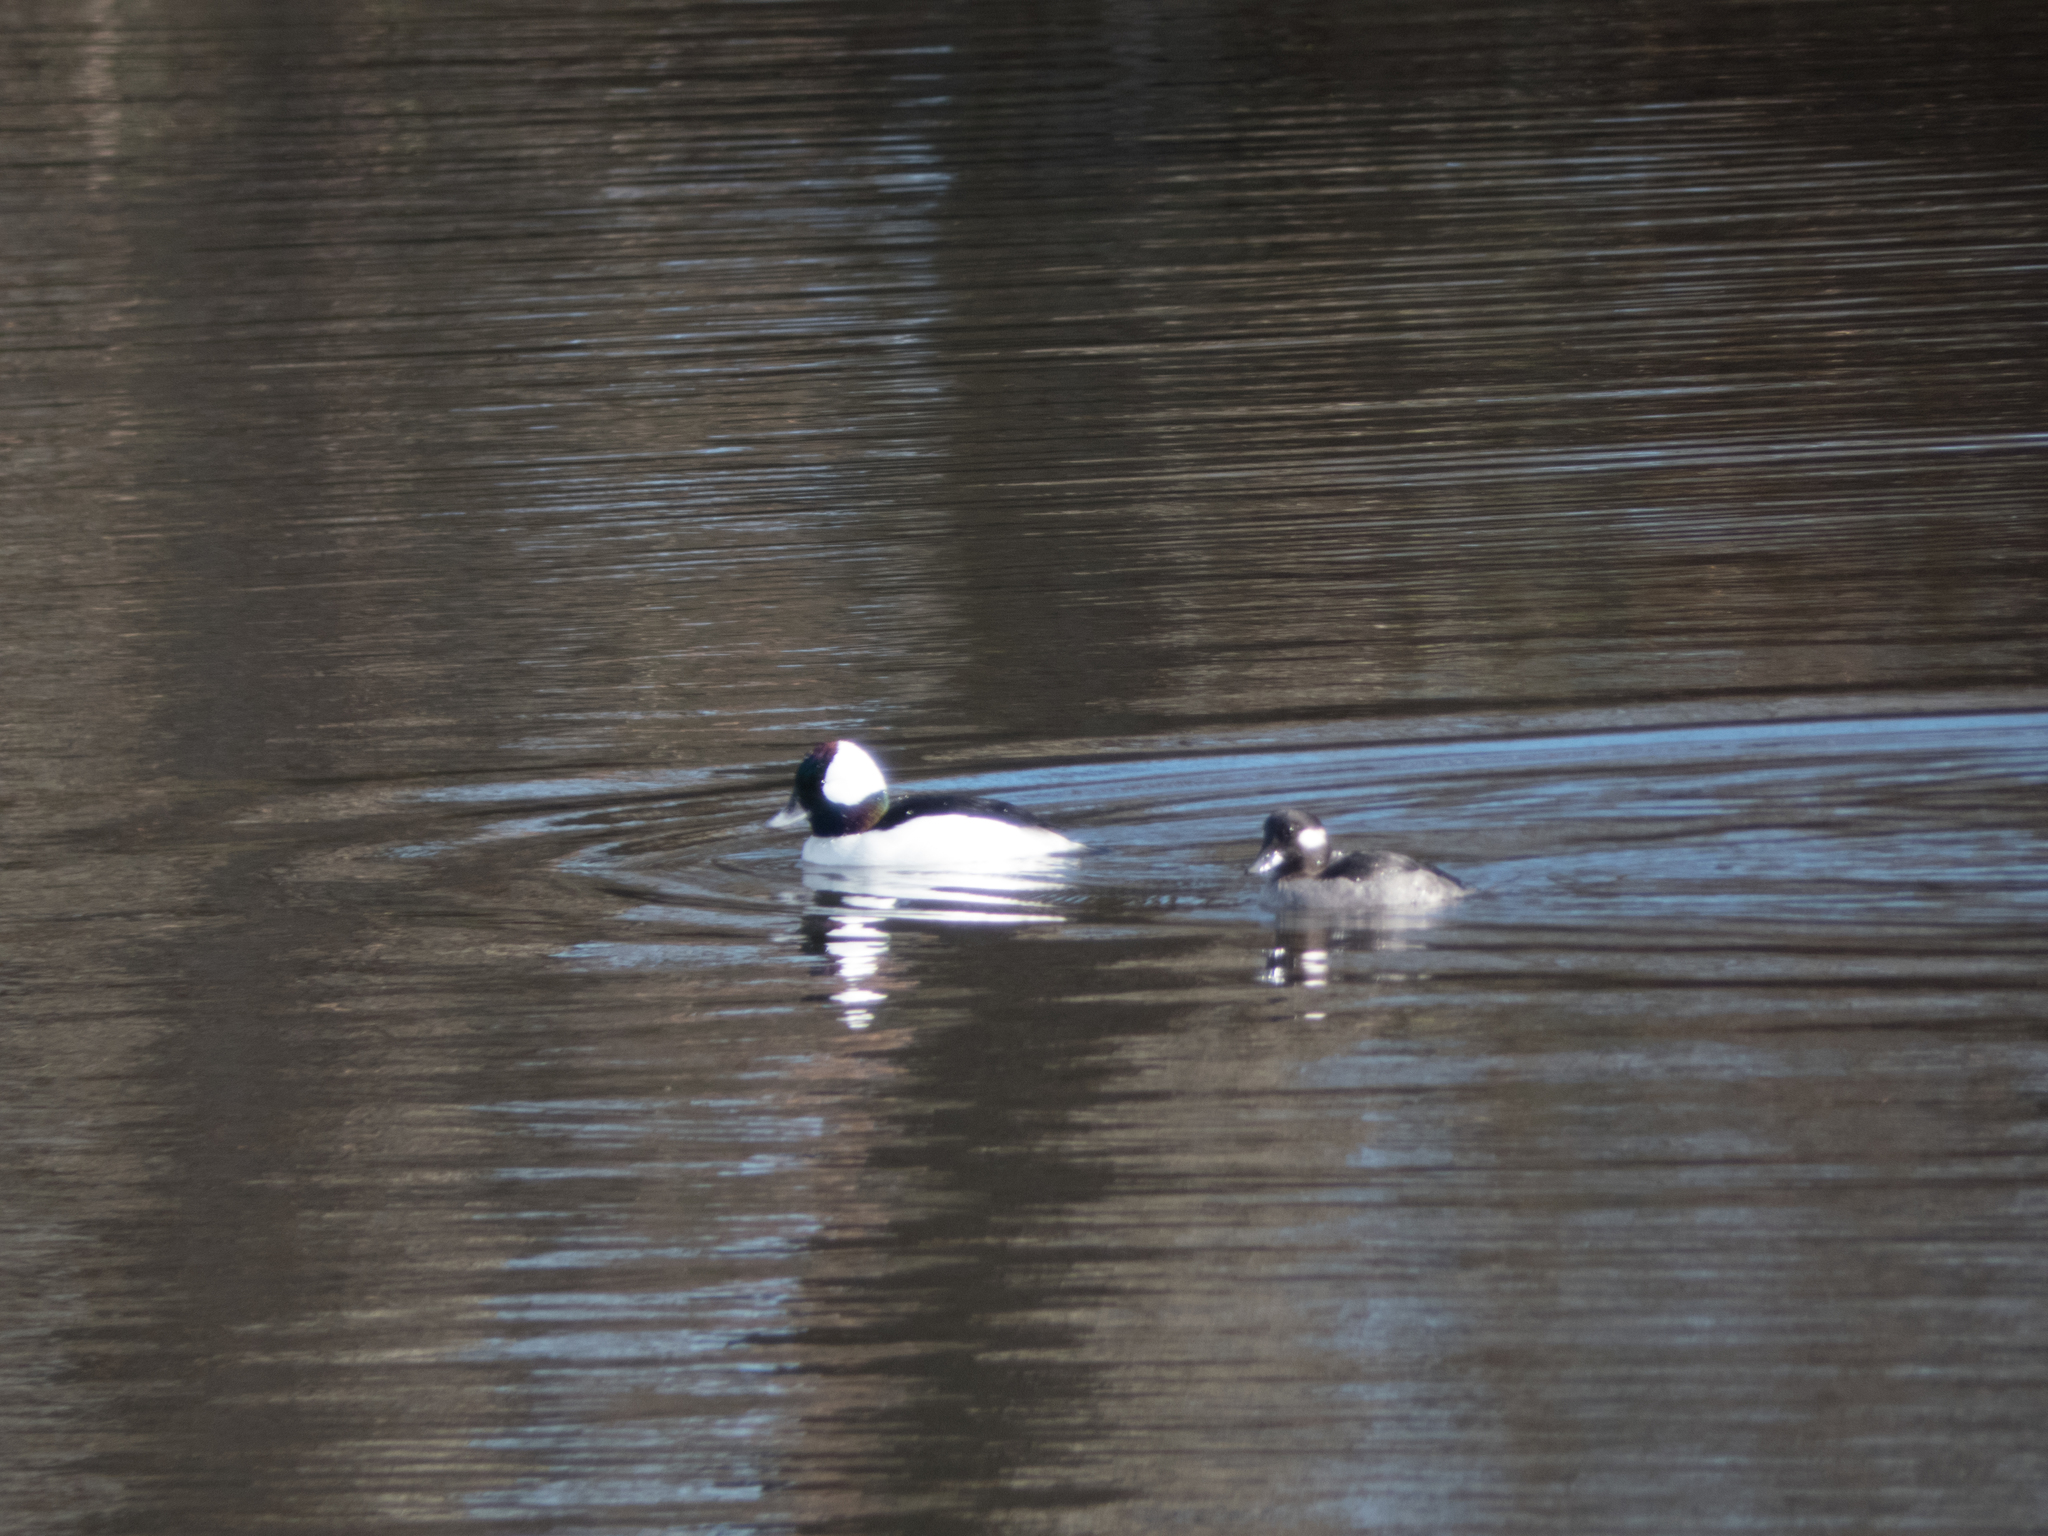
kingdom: Animalia
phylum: Chordata
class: Aves
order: Anseriformes
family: Anatidae
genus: Bucephala
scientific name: Bucephala albeola
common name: Bufflehead
